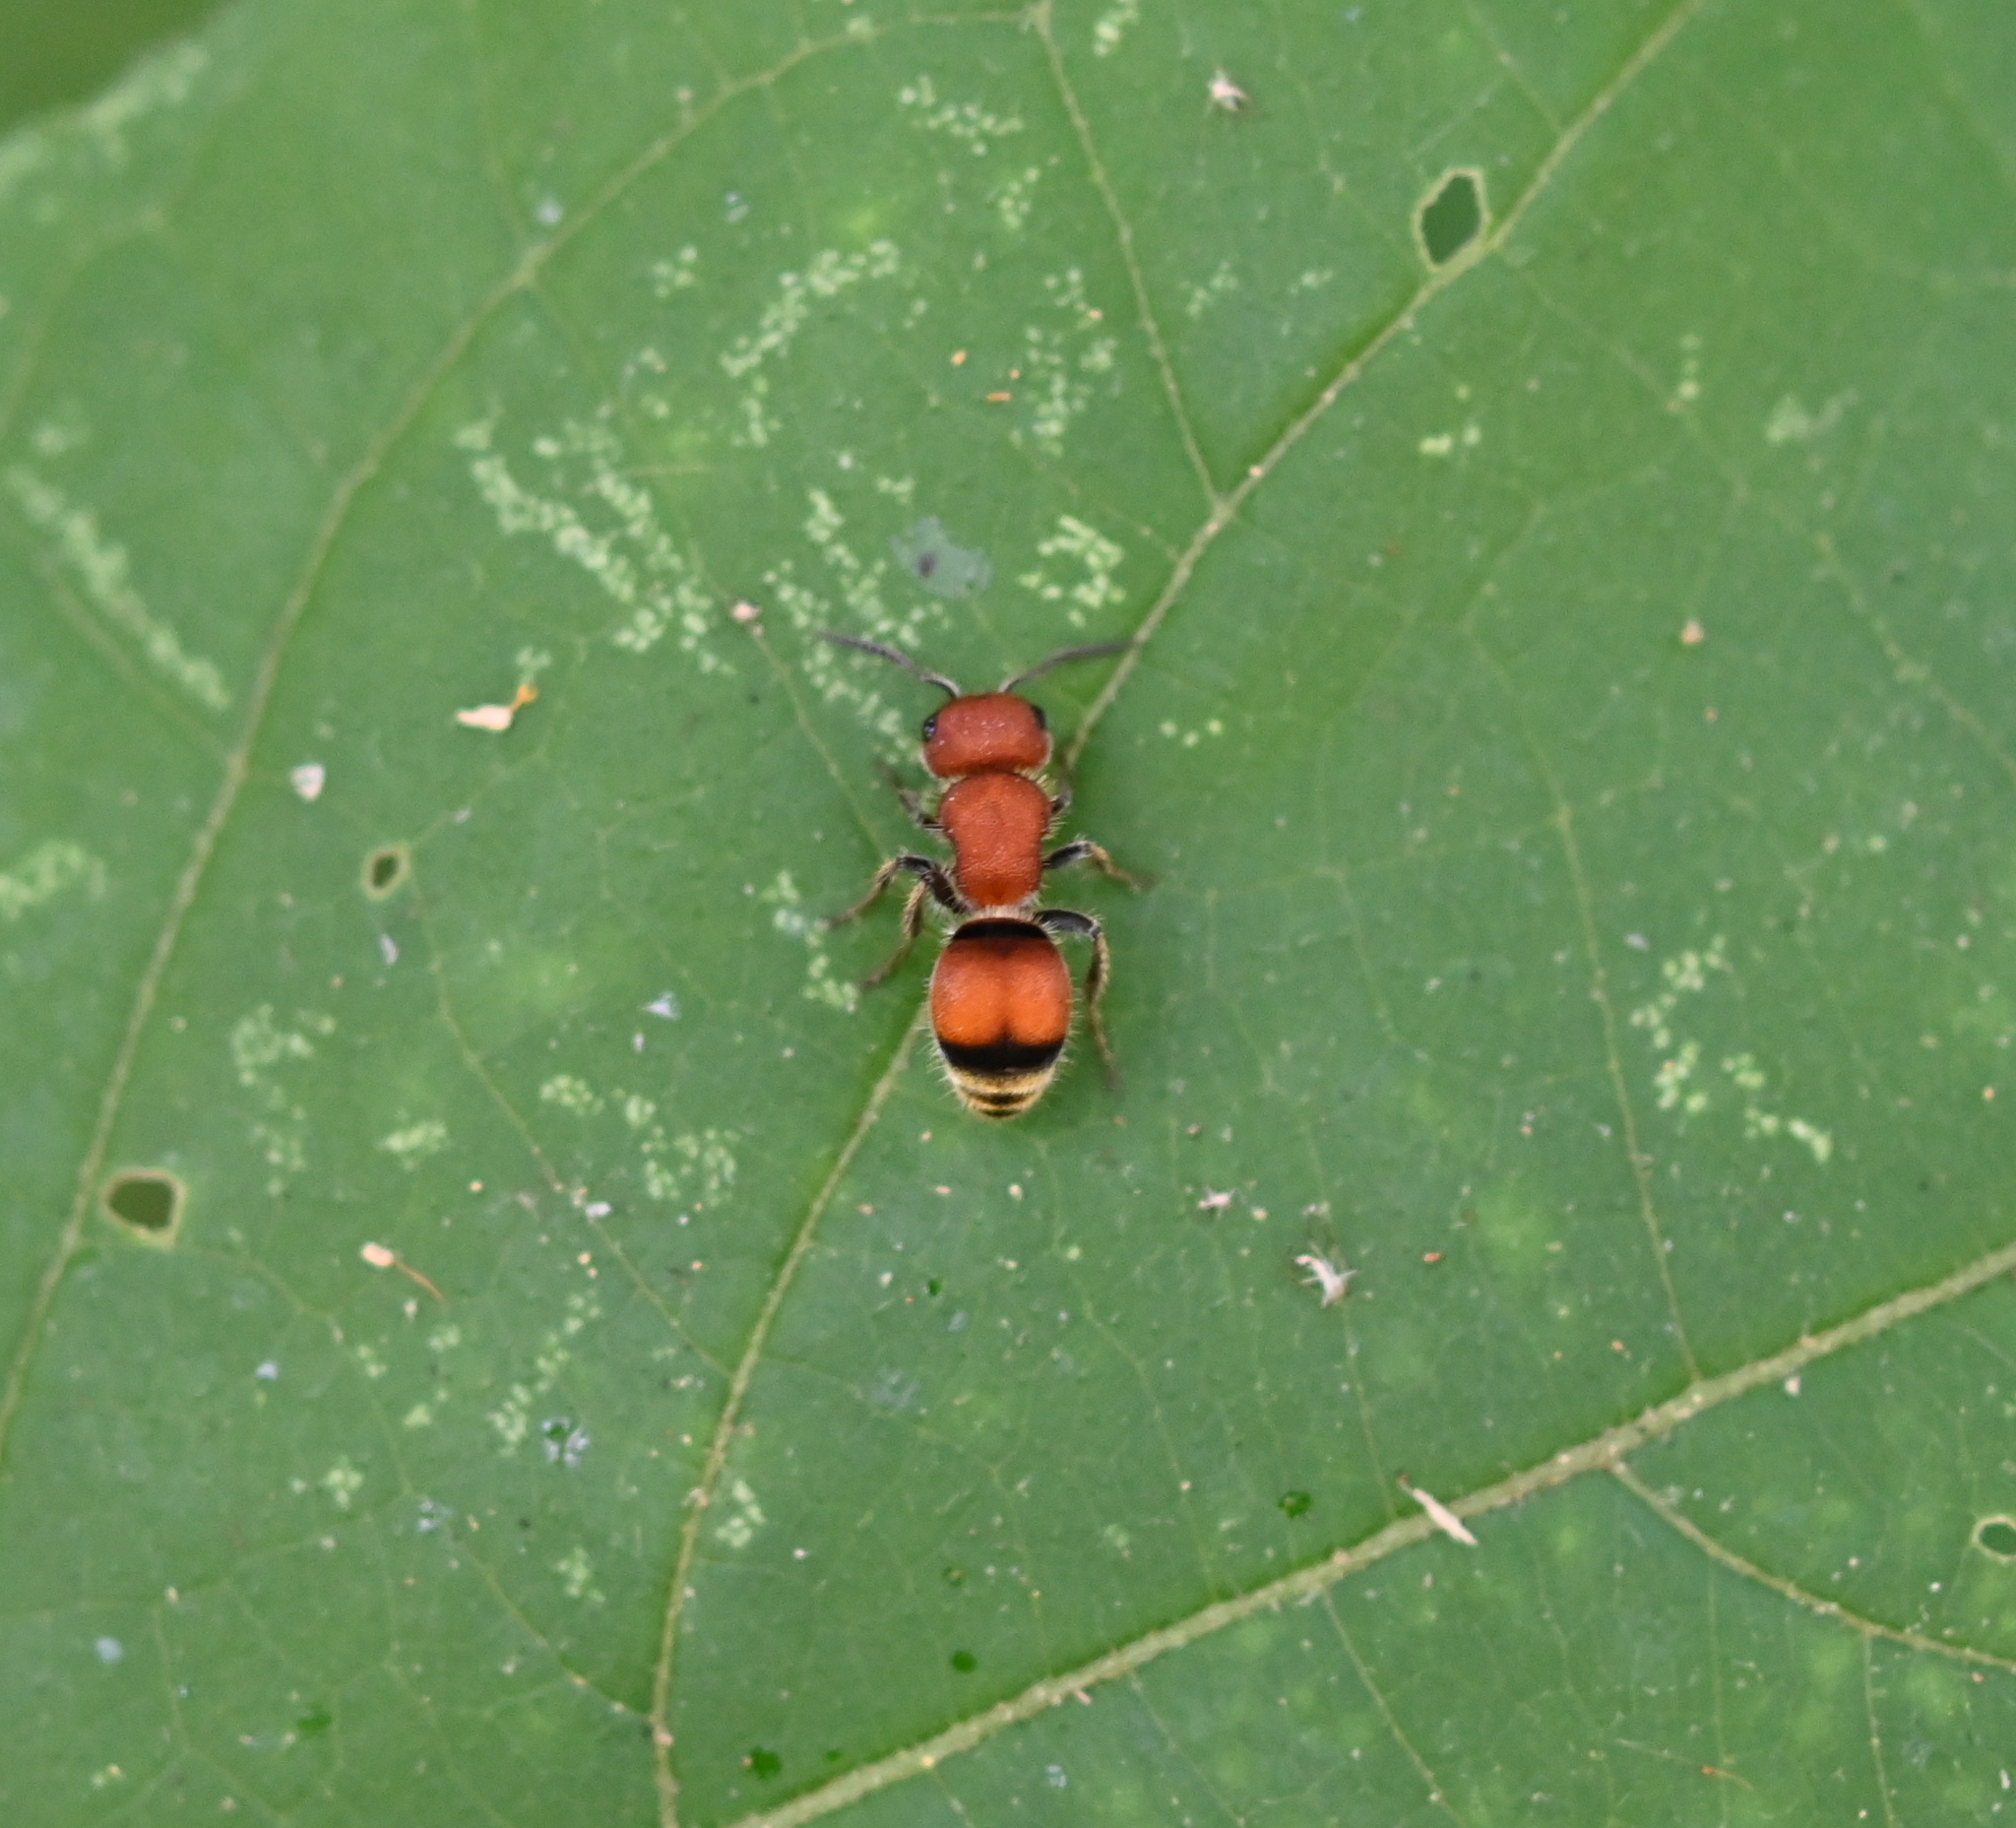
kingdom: Animalia
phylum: Arthropoda
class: Insecta
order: Hymenoptera
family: Mutillidae
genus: Pseudomethoca
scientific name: Pseudomethoca
